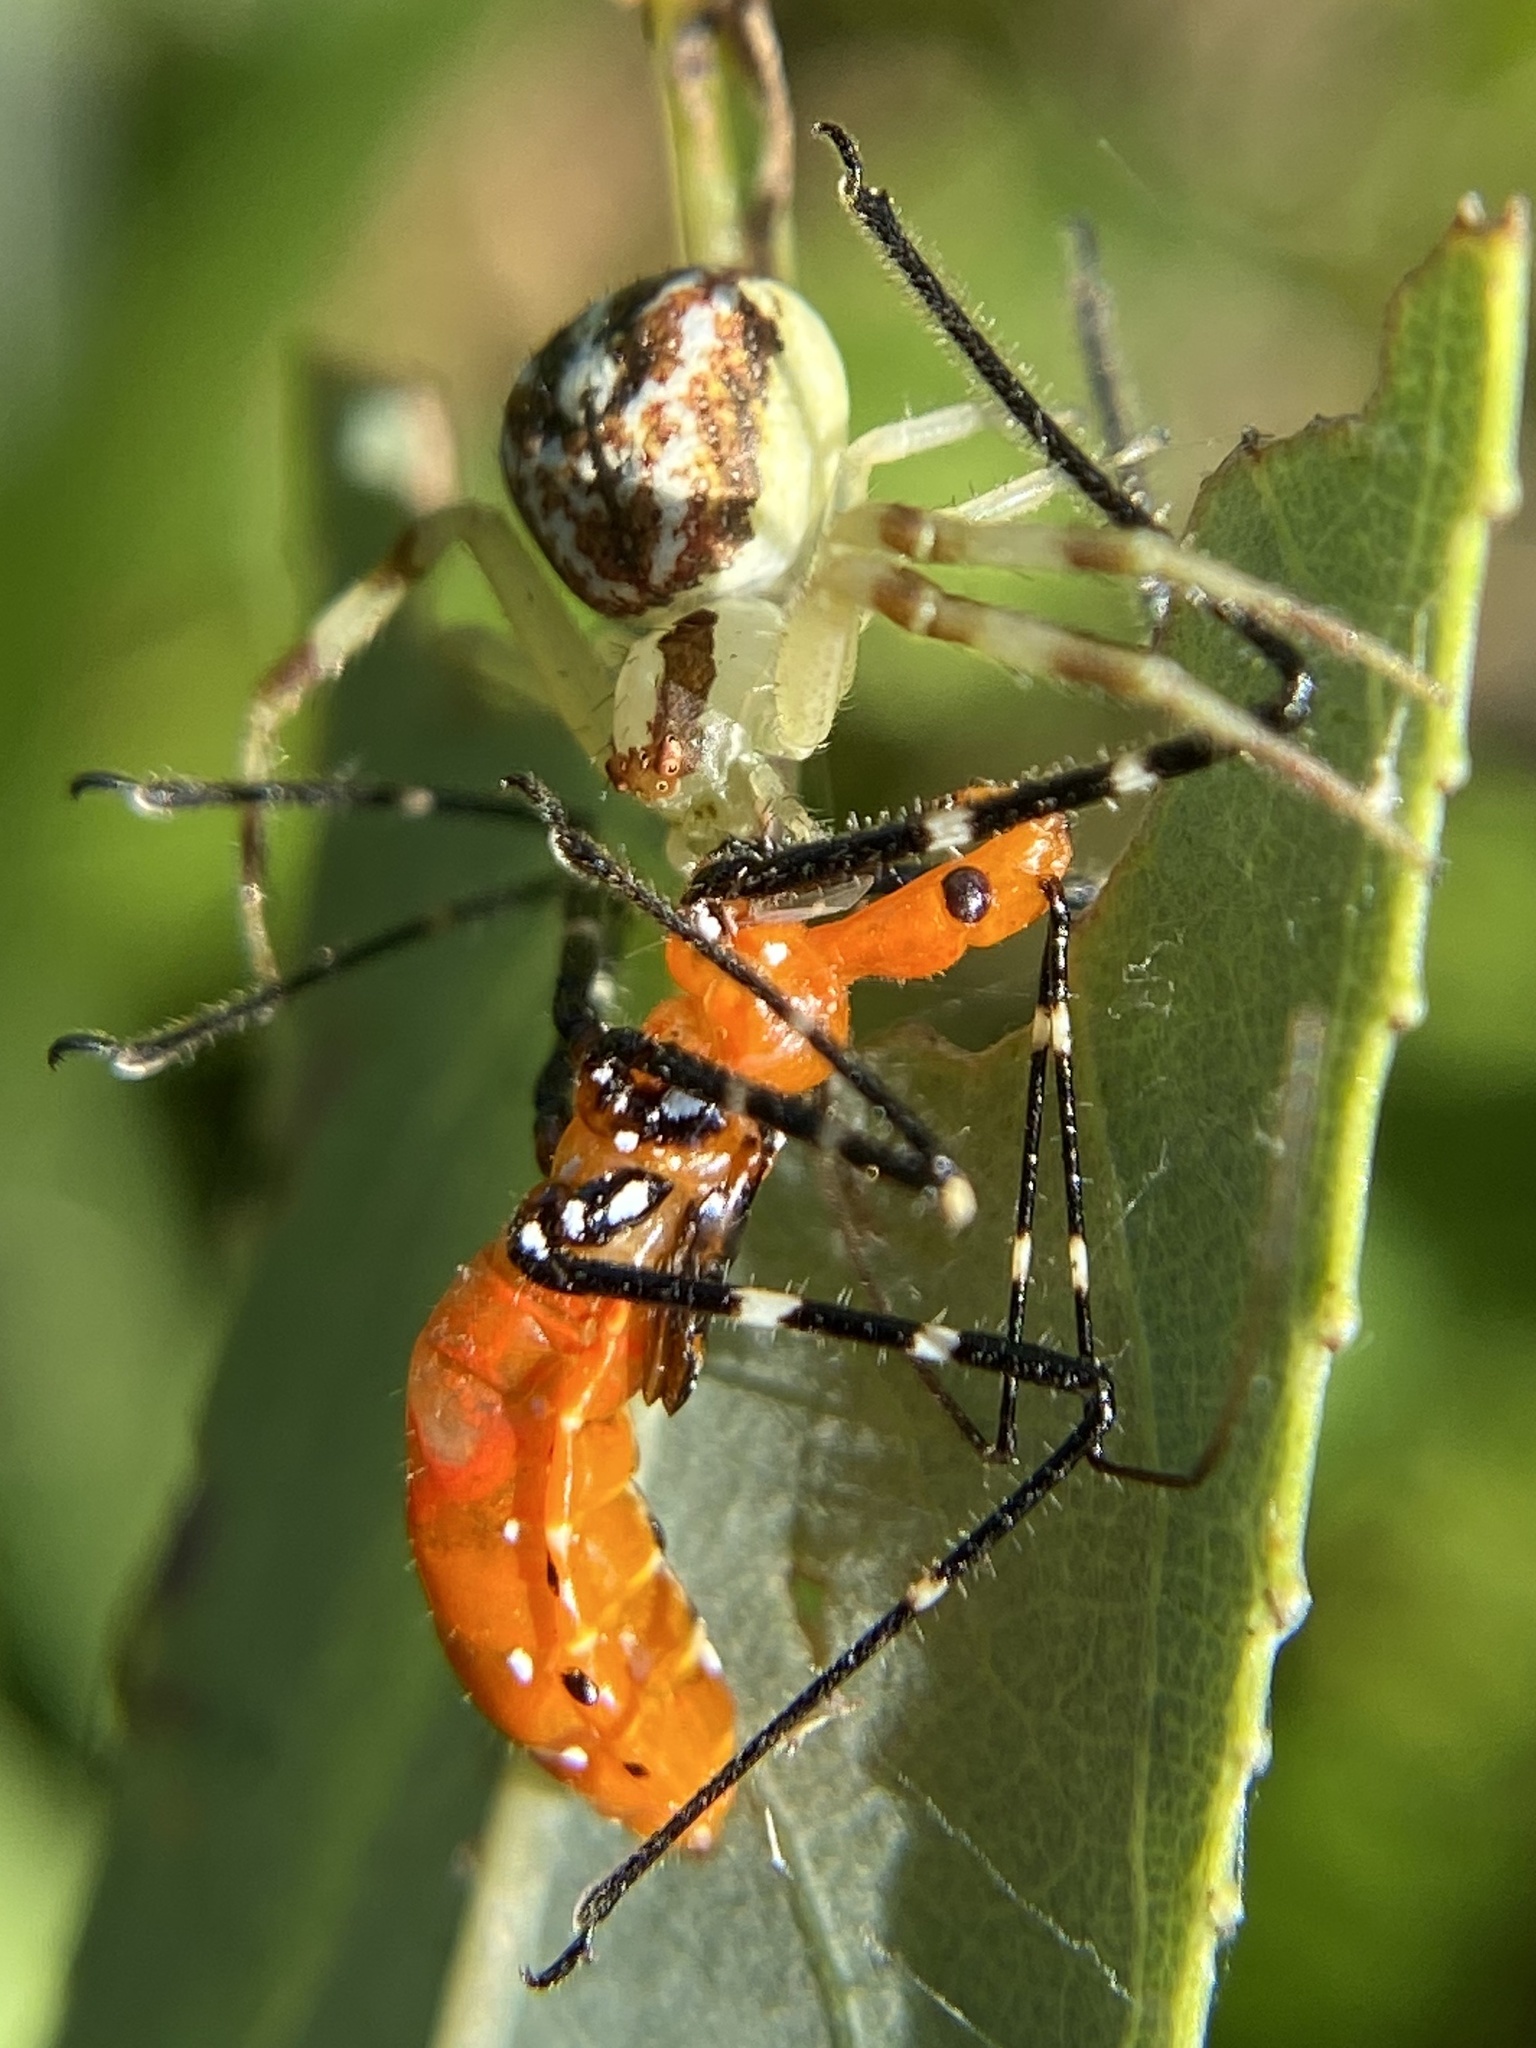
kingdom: Animalia
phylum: Arthropoda
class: Insecta
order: Hemiptera
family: Reduviidae
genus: Zelus
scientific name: Zelus longipes
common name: Milkweed assassin bug
